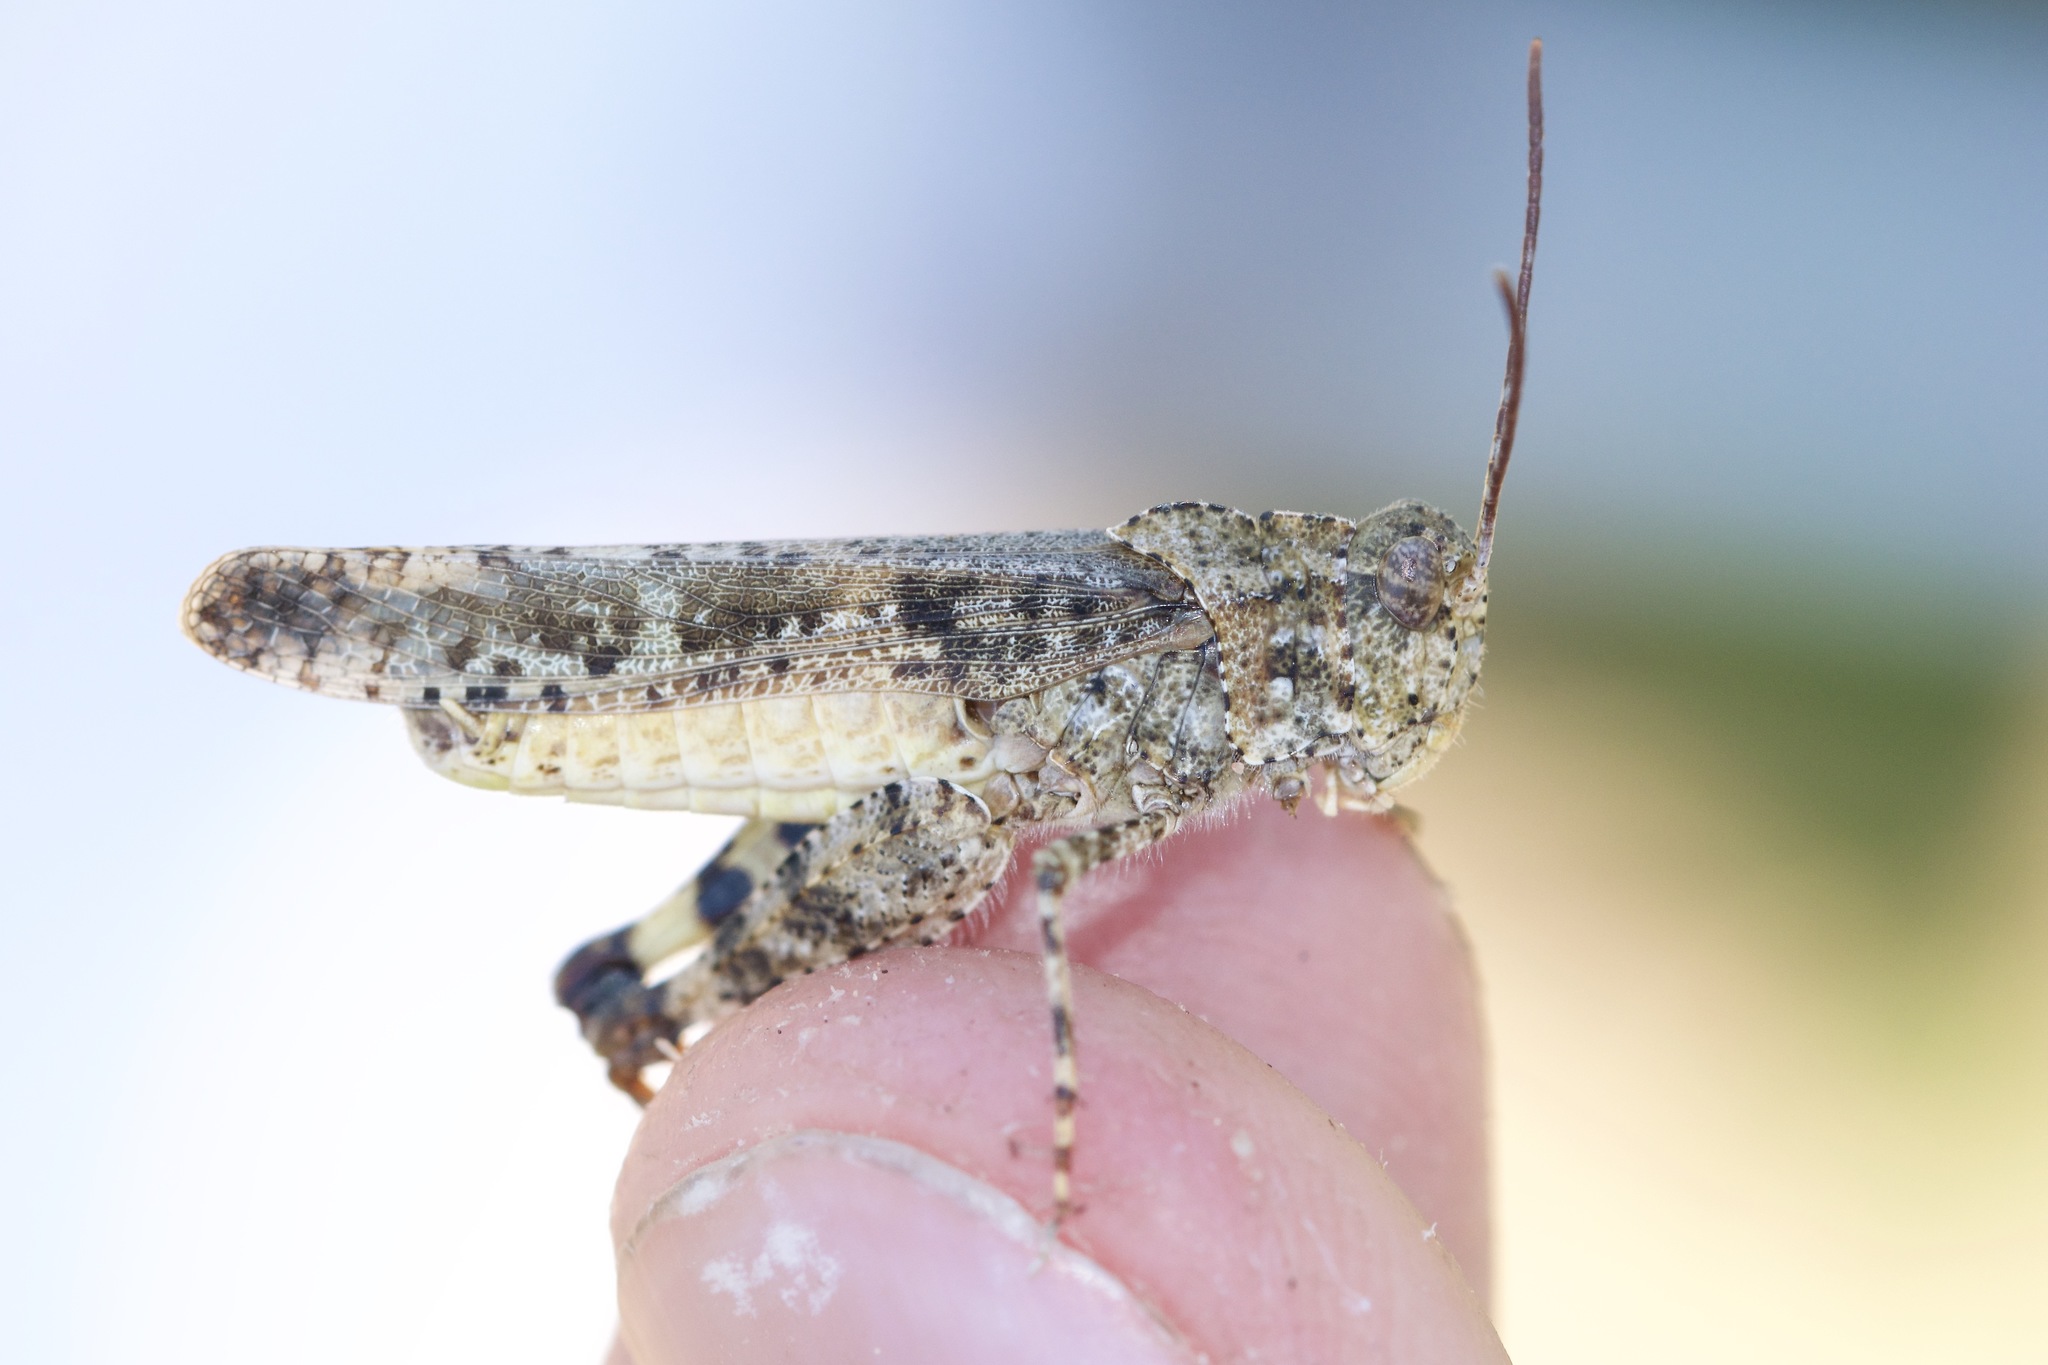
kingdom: Animalia
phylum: Arthropoda
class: Insecta
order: Orthoptera
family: Acrididae
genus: Spharagemon
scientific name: Spharagemon collare
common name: Mottled sand grasshopper
